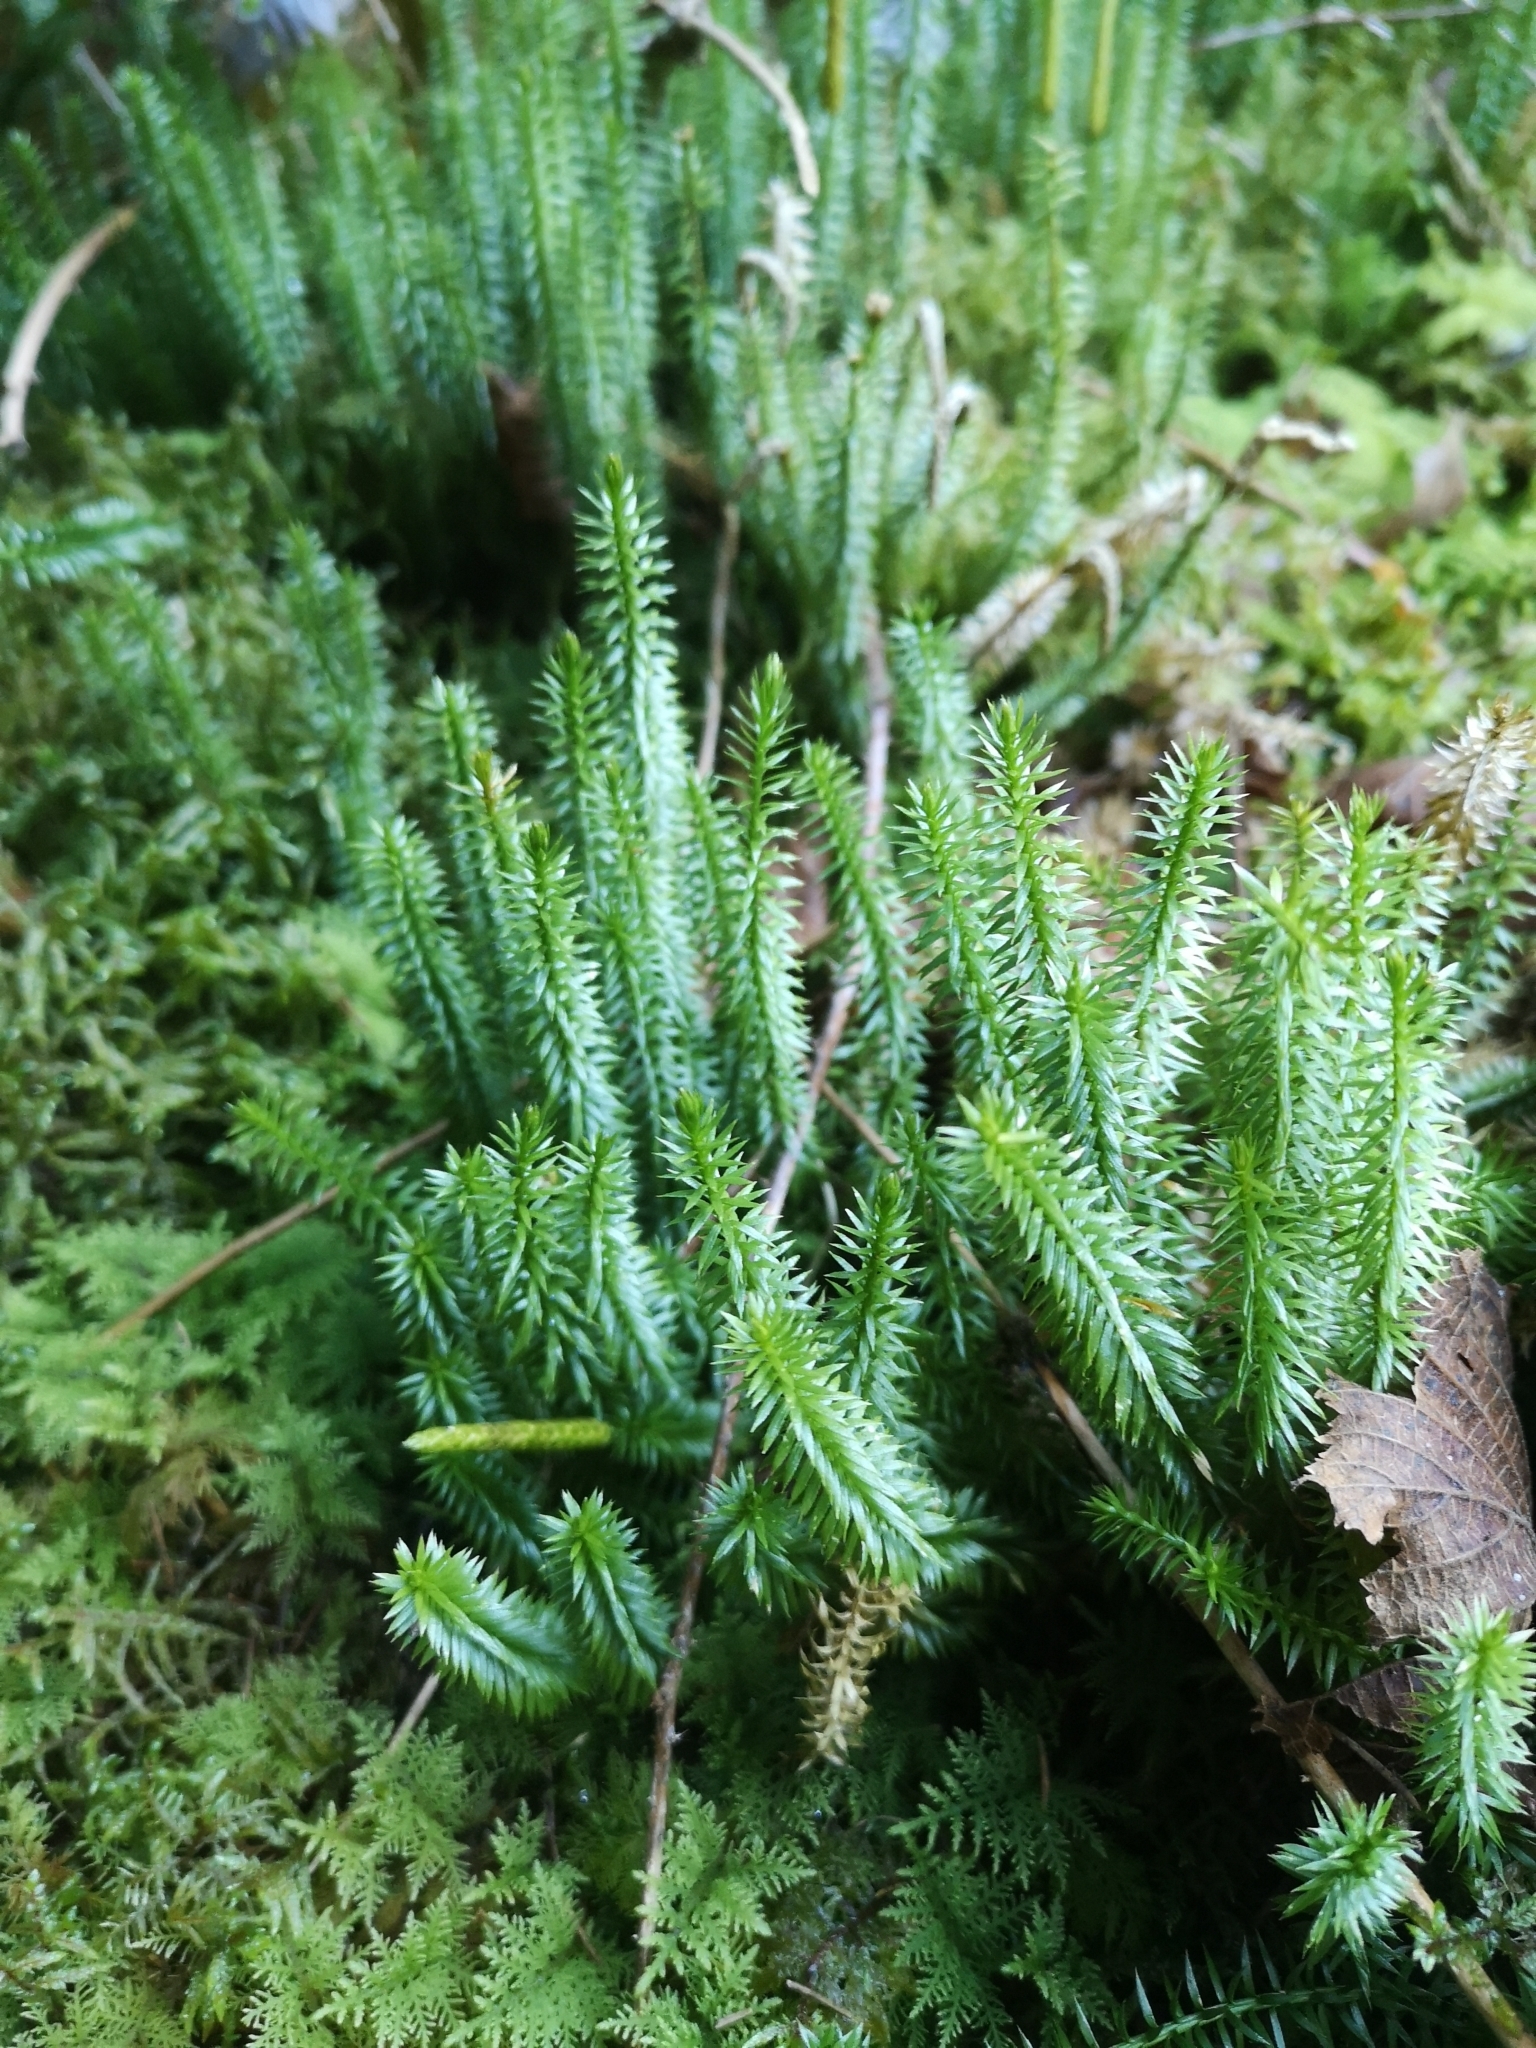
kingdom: Plantae
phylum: Tracheophyta
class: Lycopodiopsida
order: Lycopodiales
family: Lycopodiaceae
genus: Spinulum
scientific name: Spinulum annotinum
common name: Interrupted club-moss
